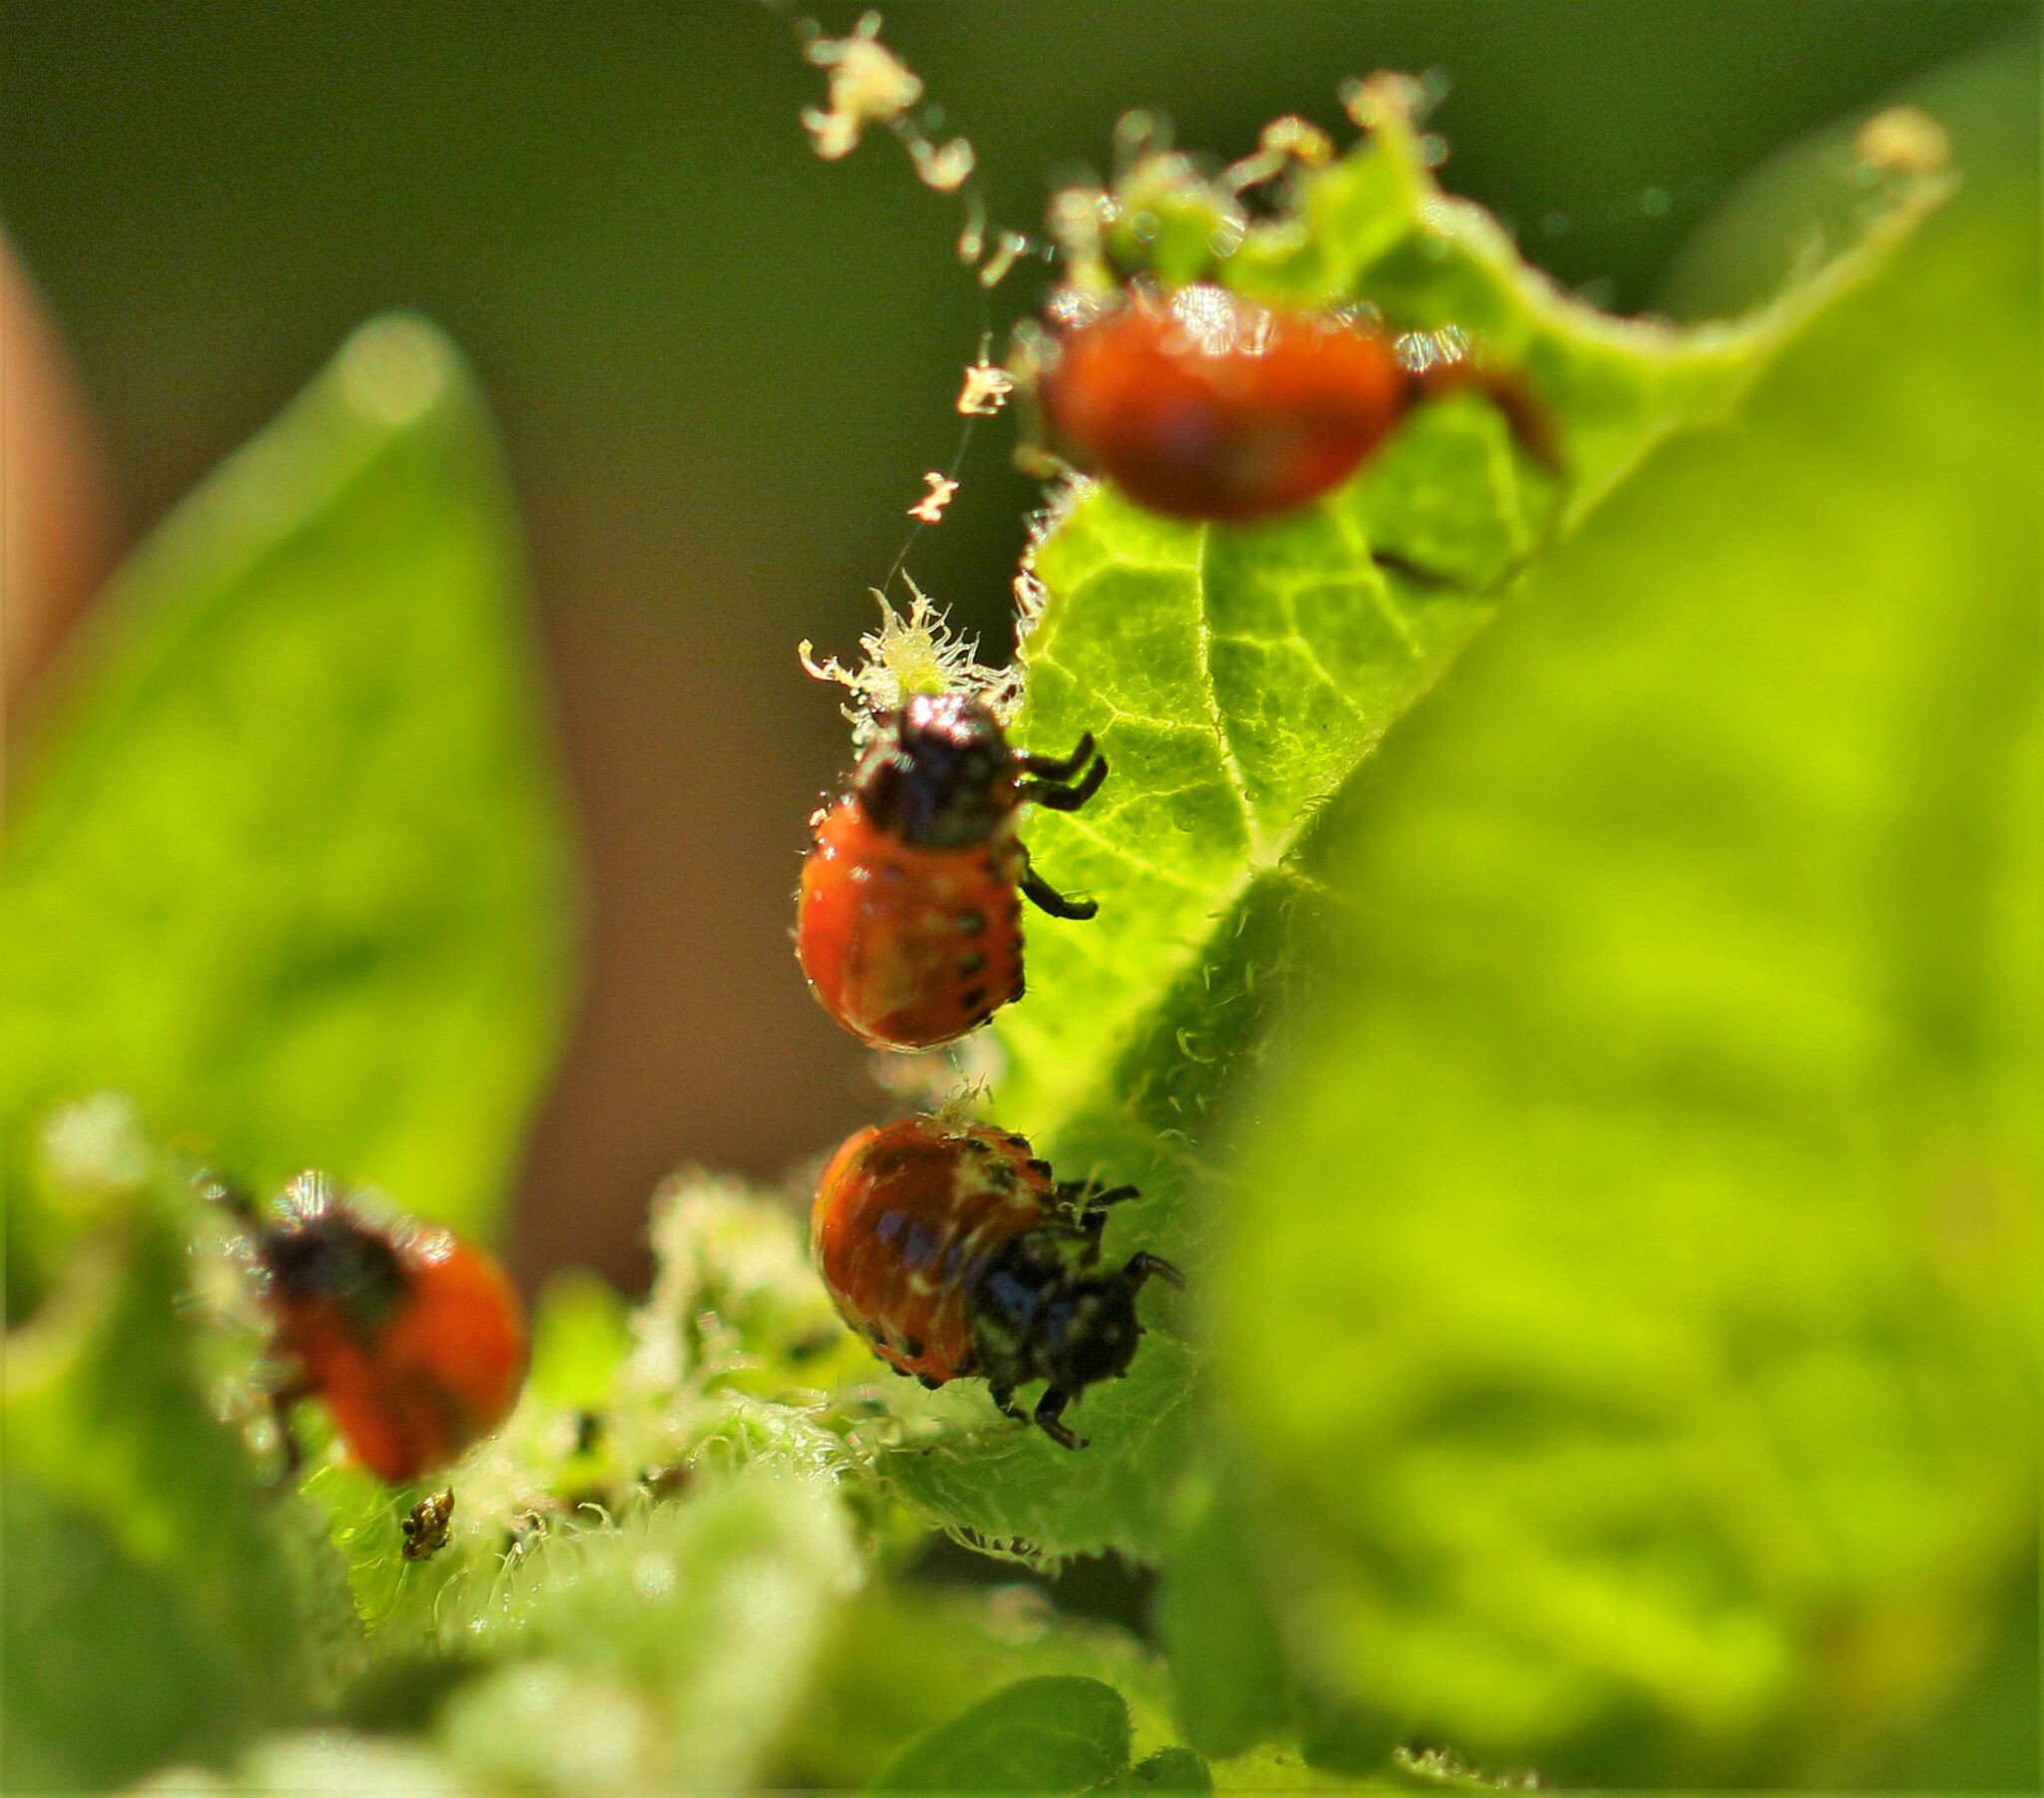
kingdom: Animalia
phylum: Arthropoda
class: Insecta
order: Coleoptera
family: Chrysomelidae
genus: Leptinotarsa
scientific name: Leptinotarsa decemlineata
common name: Colorado potato beetle
